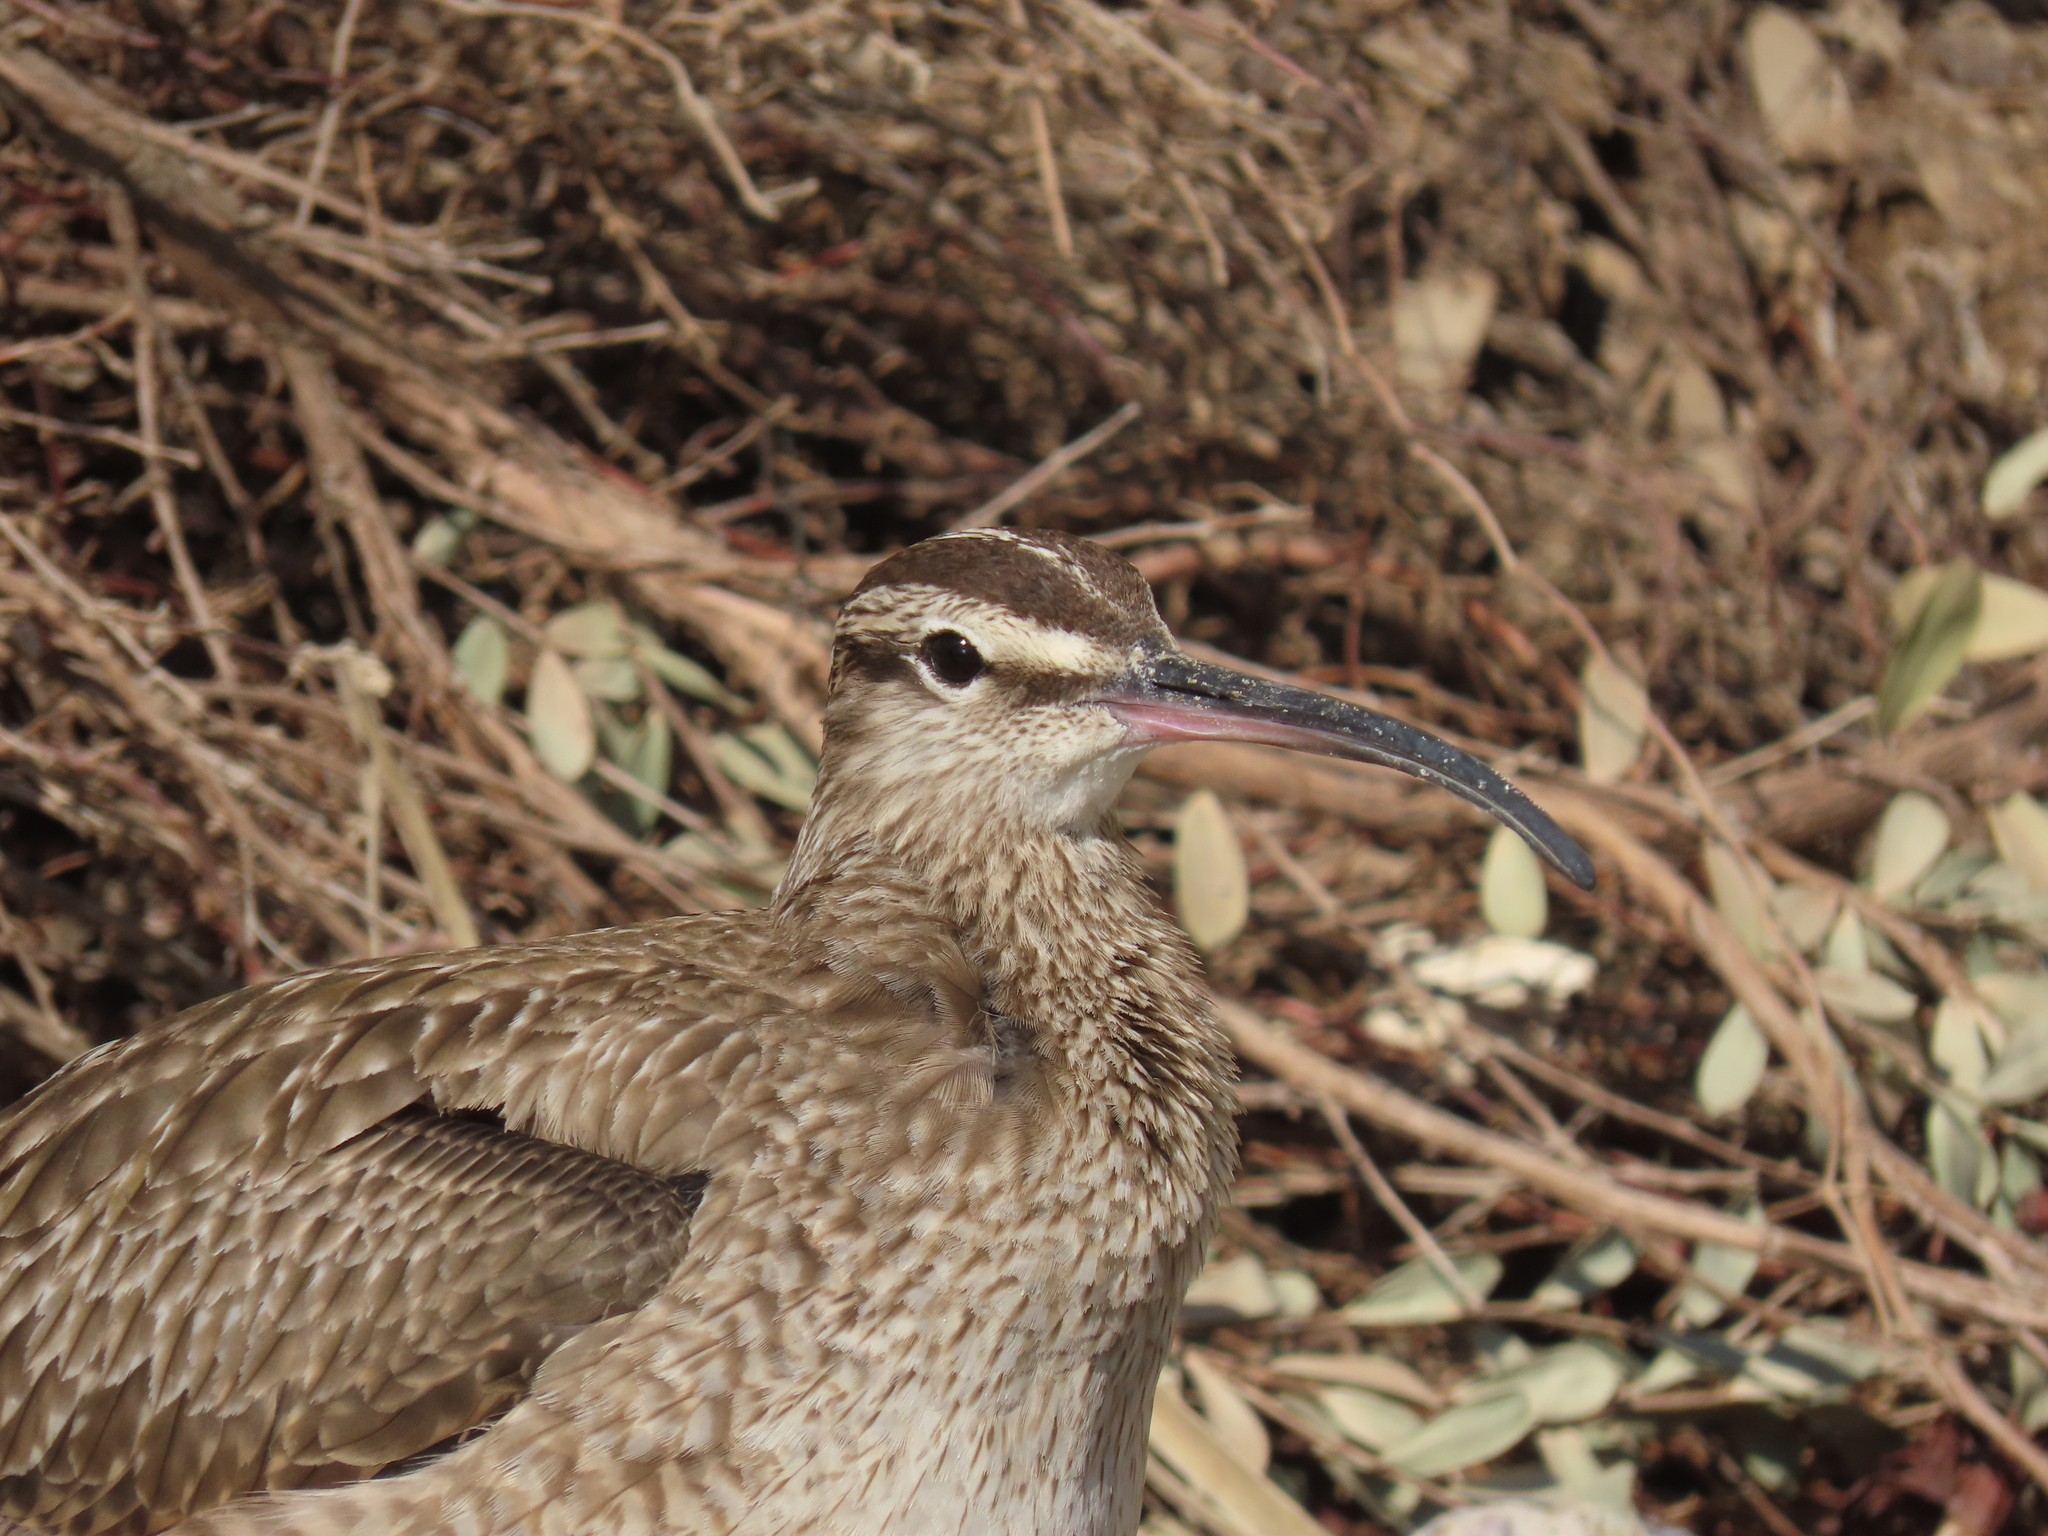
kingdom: Animalia
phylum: Chordata
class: Aves
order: Charadriiformes
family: Scolopacidae
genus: Numenius
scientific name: Numenius phaeopus
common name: Whimbrel
